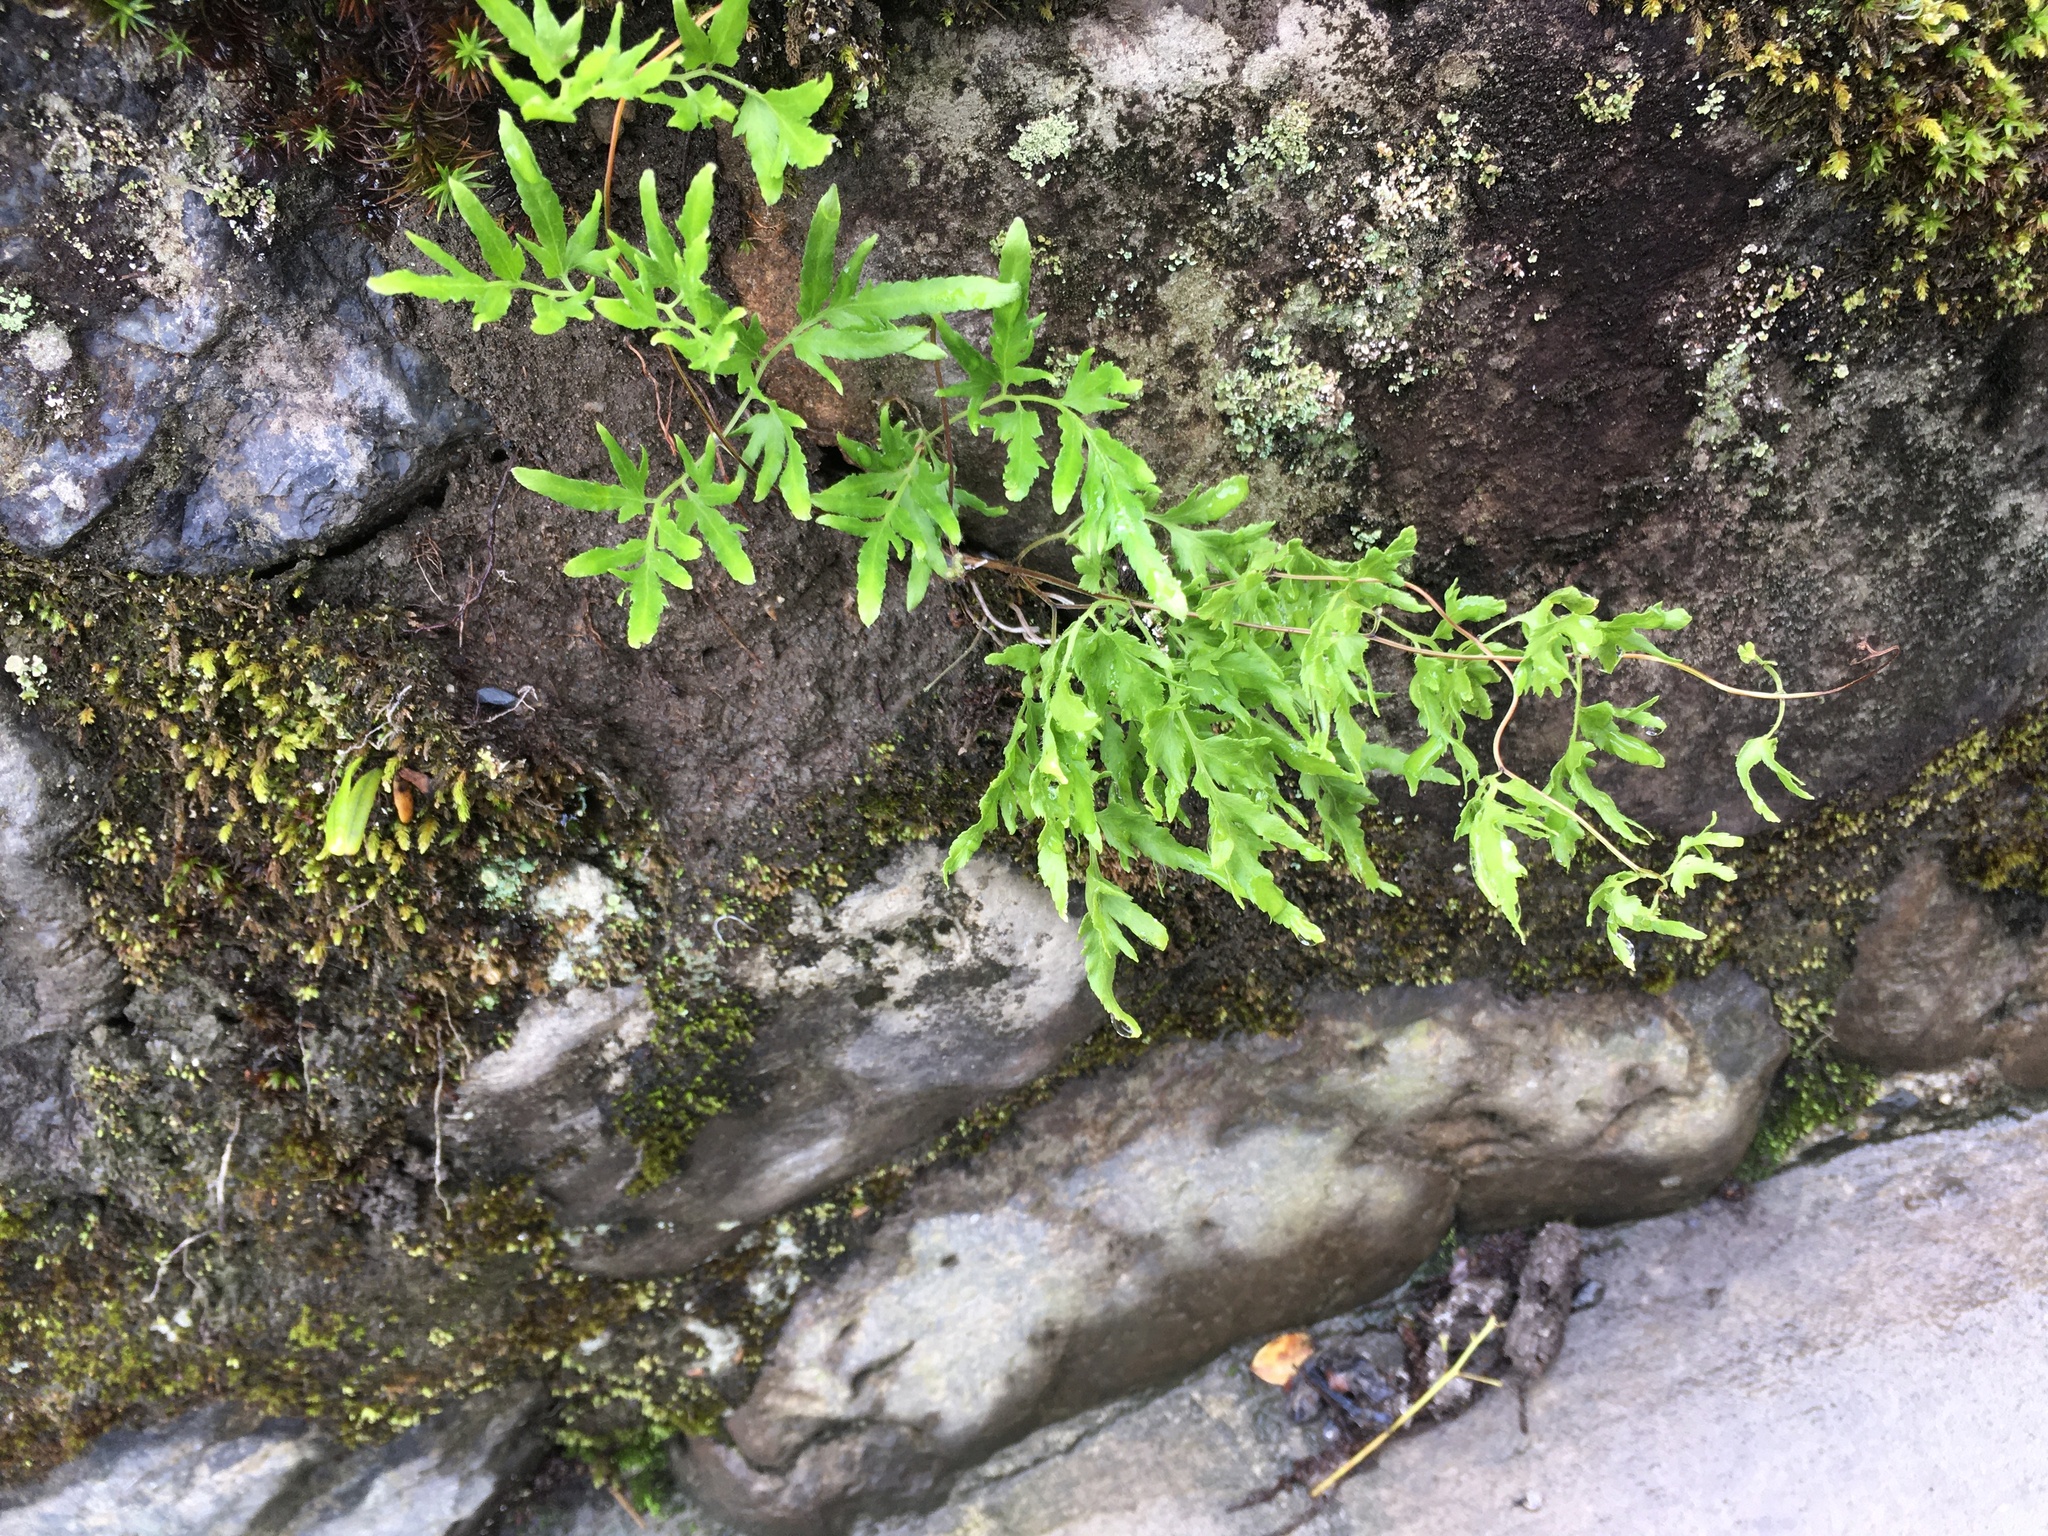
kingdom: Plantae
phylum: Tracheophyta
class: Polypodiopsida
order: Schizaeales
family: Lygodiaceae
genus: Lygodium
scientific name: Lygodium japonicum
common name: Japanese climbing fern
